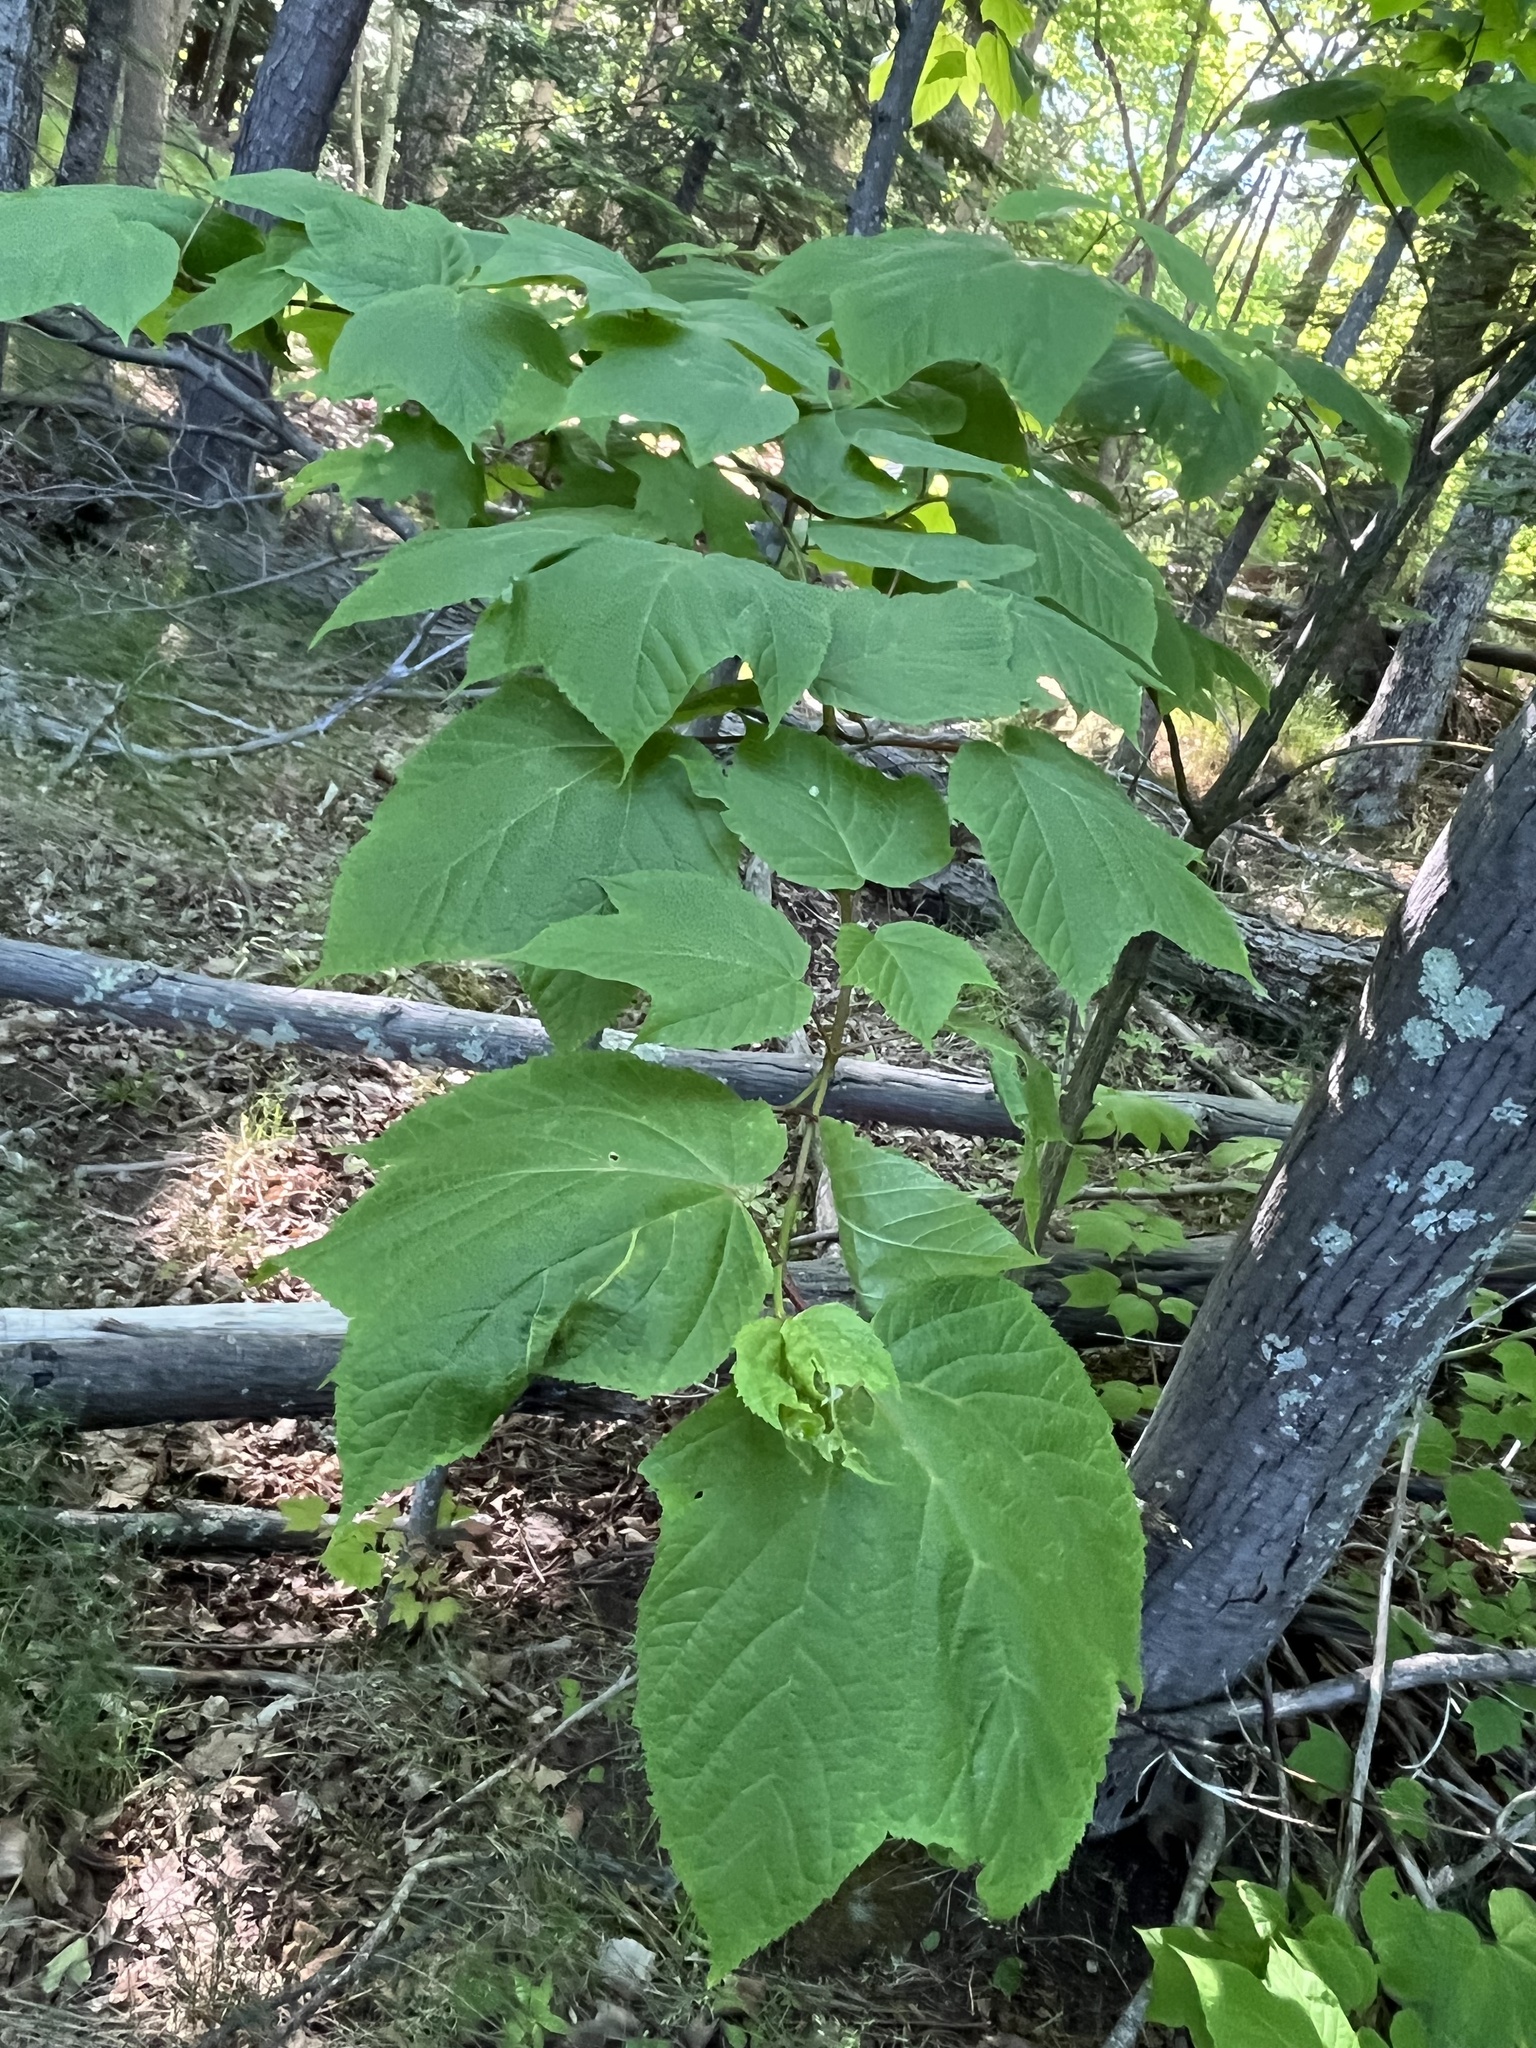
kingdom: Plantae
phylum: Tracheophyta
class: Magnoliopsida
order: Sapindales
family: Sapindaceae
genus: Acer
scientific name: Acer pensylvanicum
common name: Moosewood
